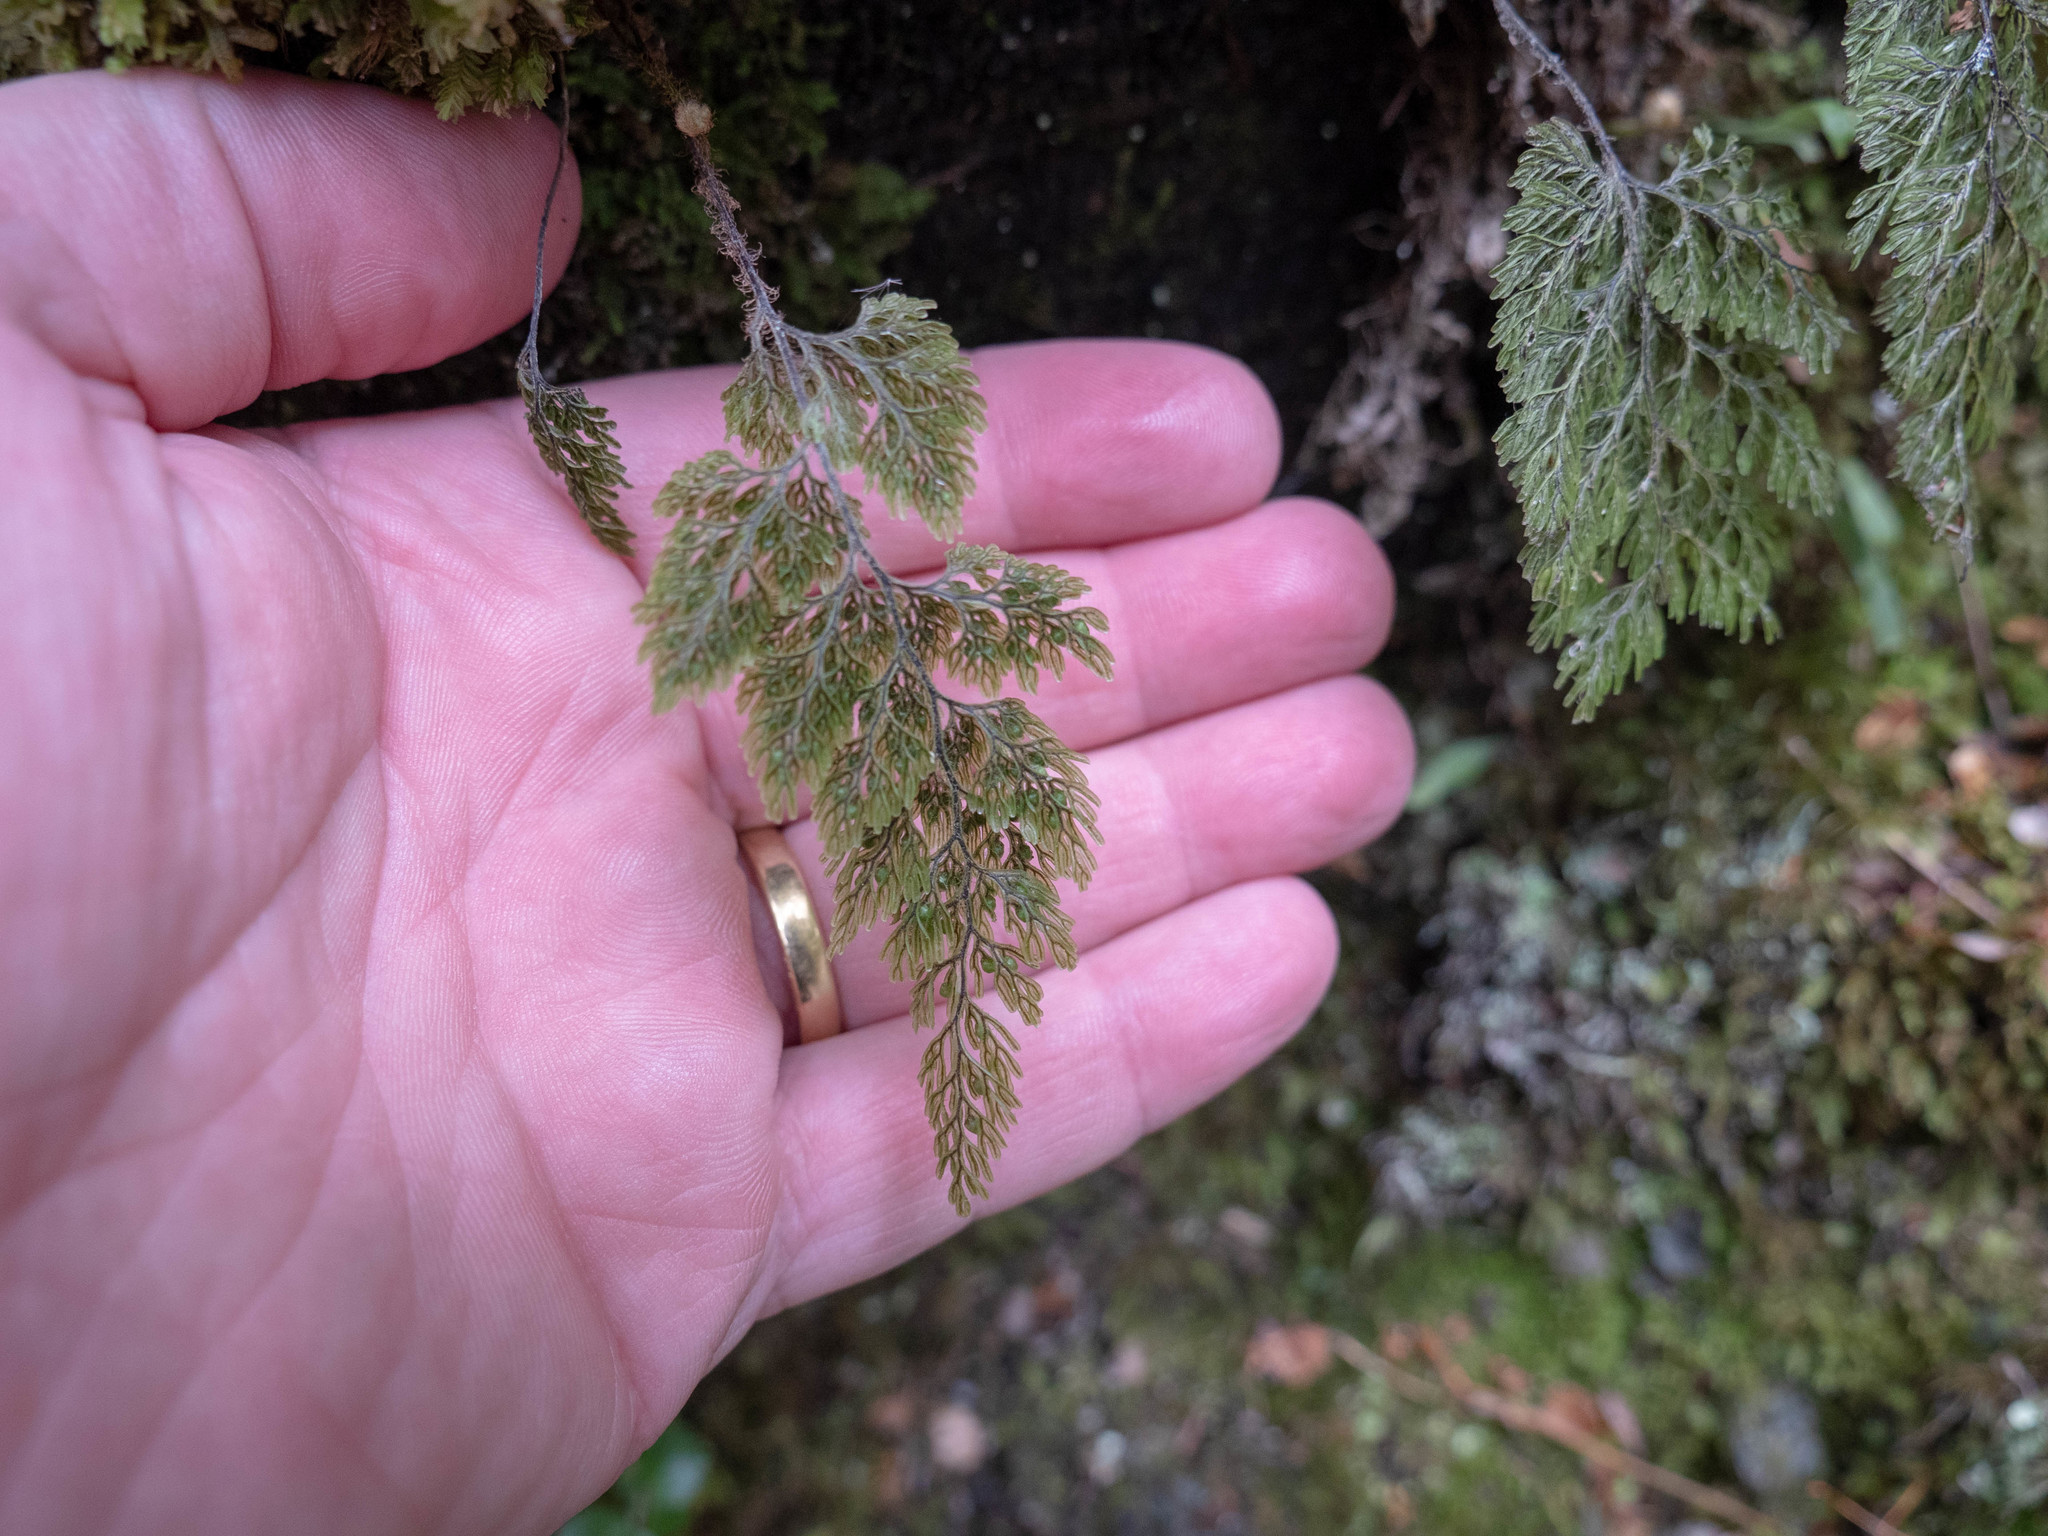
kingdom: Plantae
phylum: Tracheophyta
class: Polypodiopsida
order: Hymenophyllales
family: Hymenophyllaceae
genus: Hymenophyllum
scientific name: Hymenophyllum villosum
